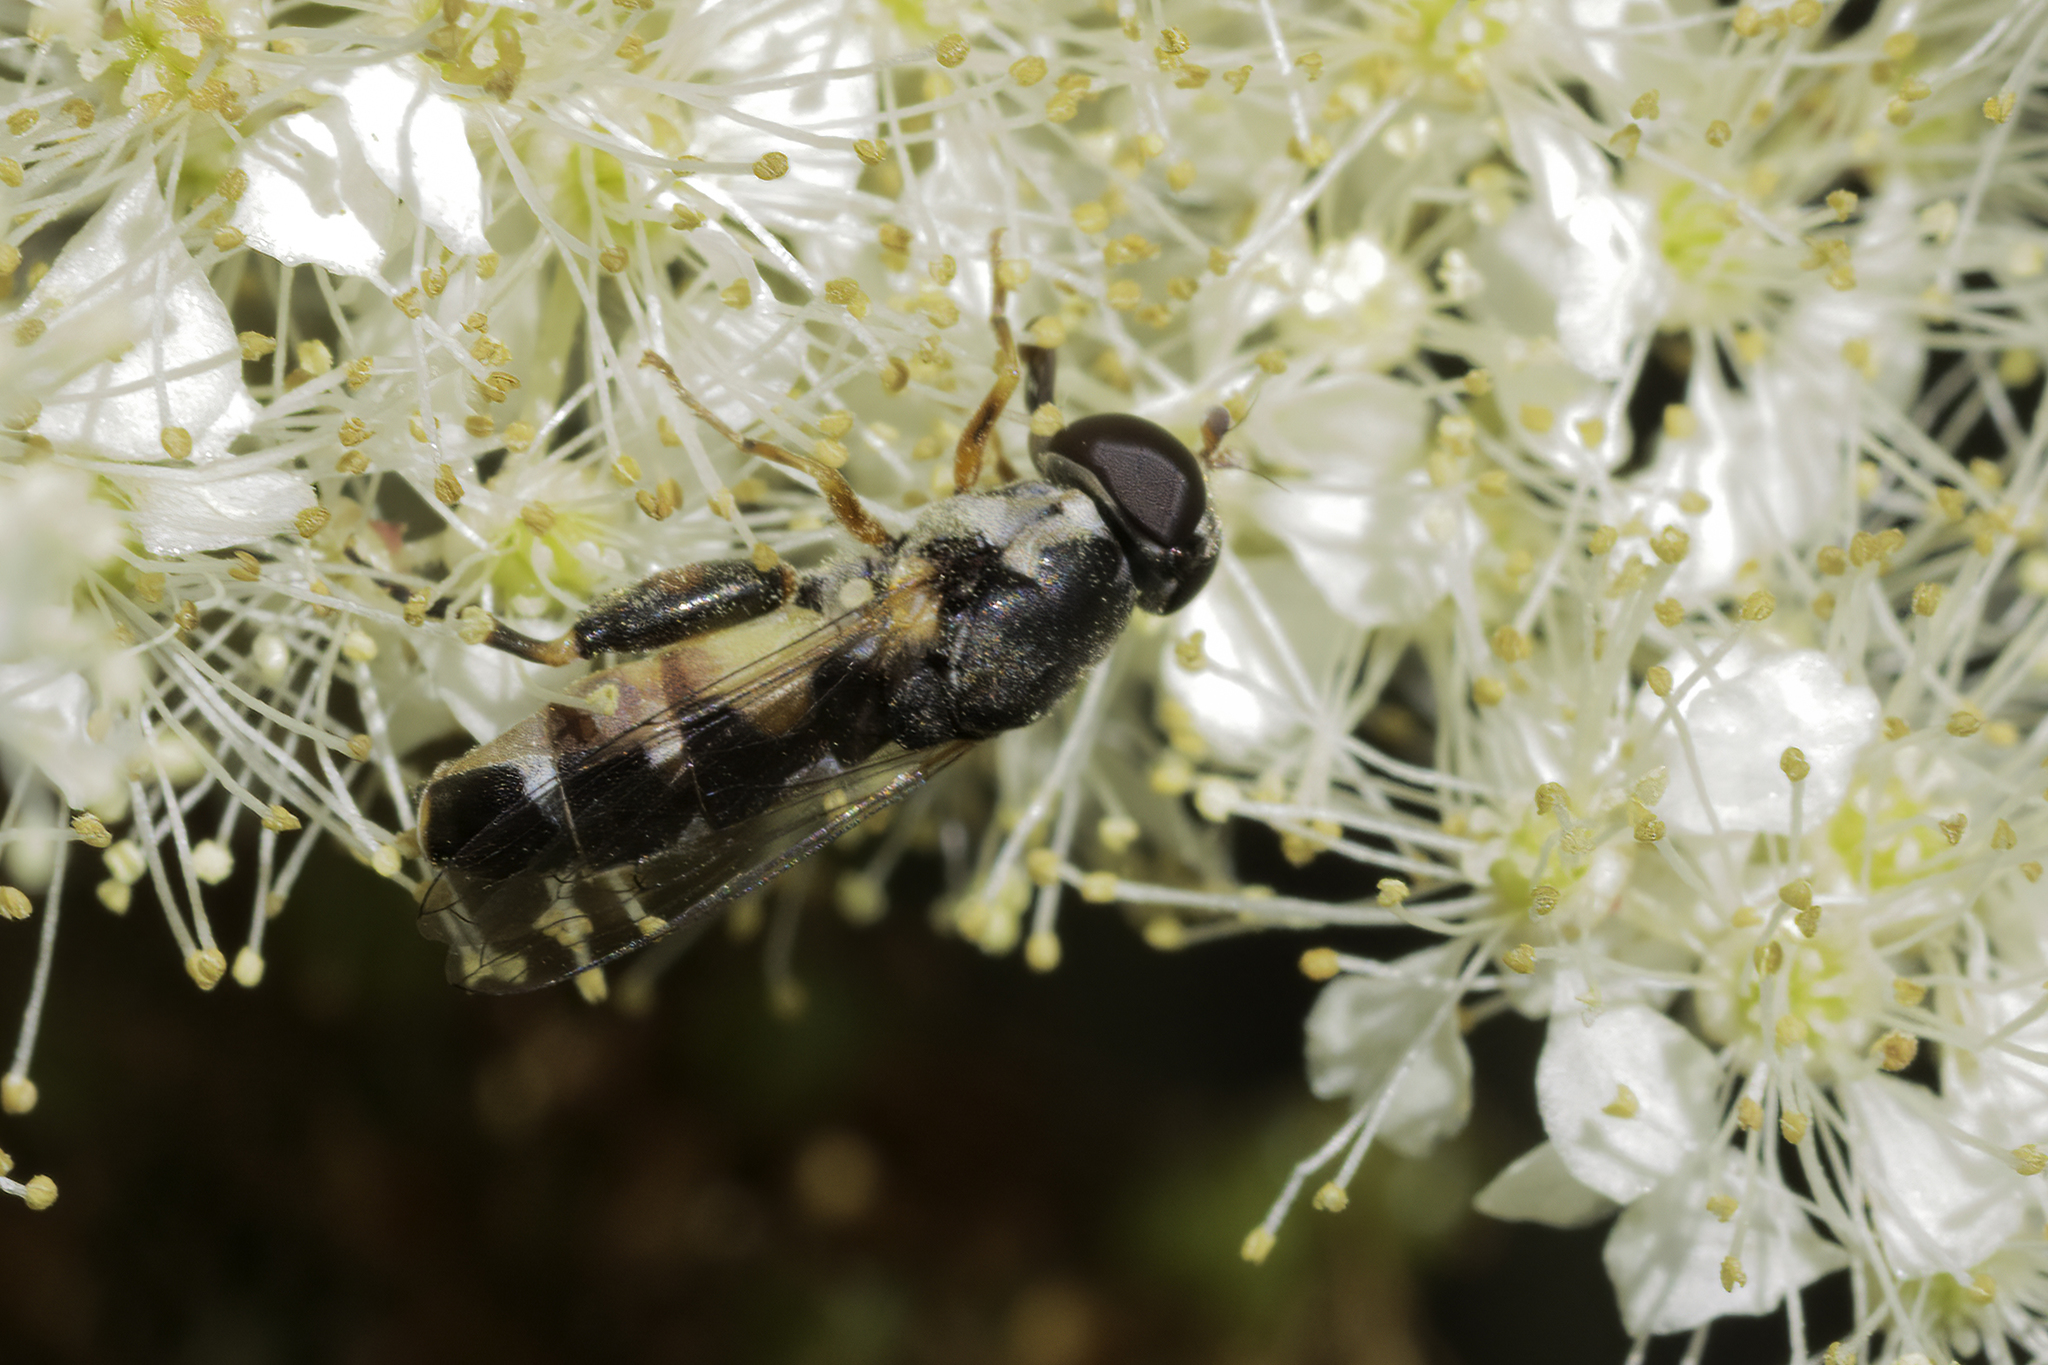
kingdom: Animalia
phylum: Arthropoda
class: Insecta
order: Diptera
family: Syrphidae
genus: Syritta
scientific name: Syritta pipiens
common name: Hover fly
